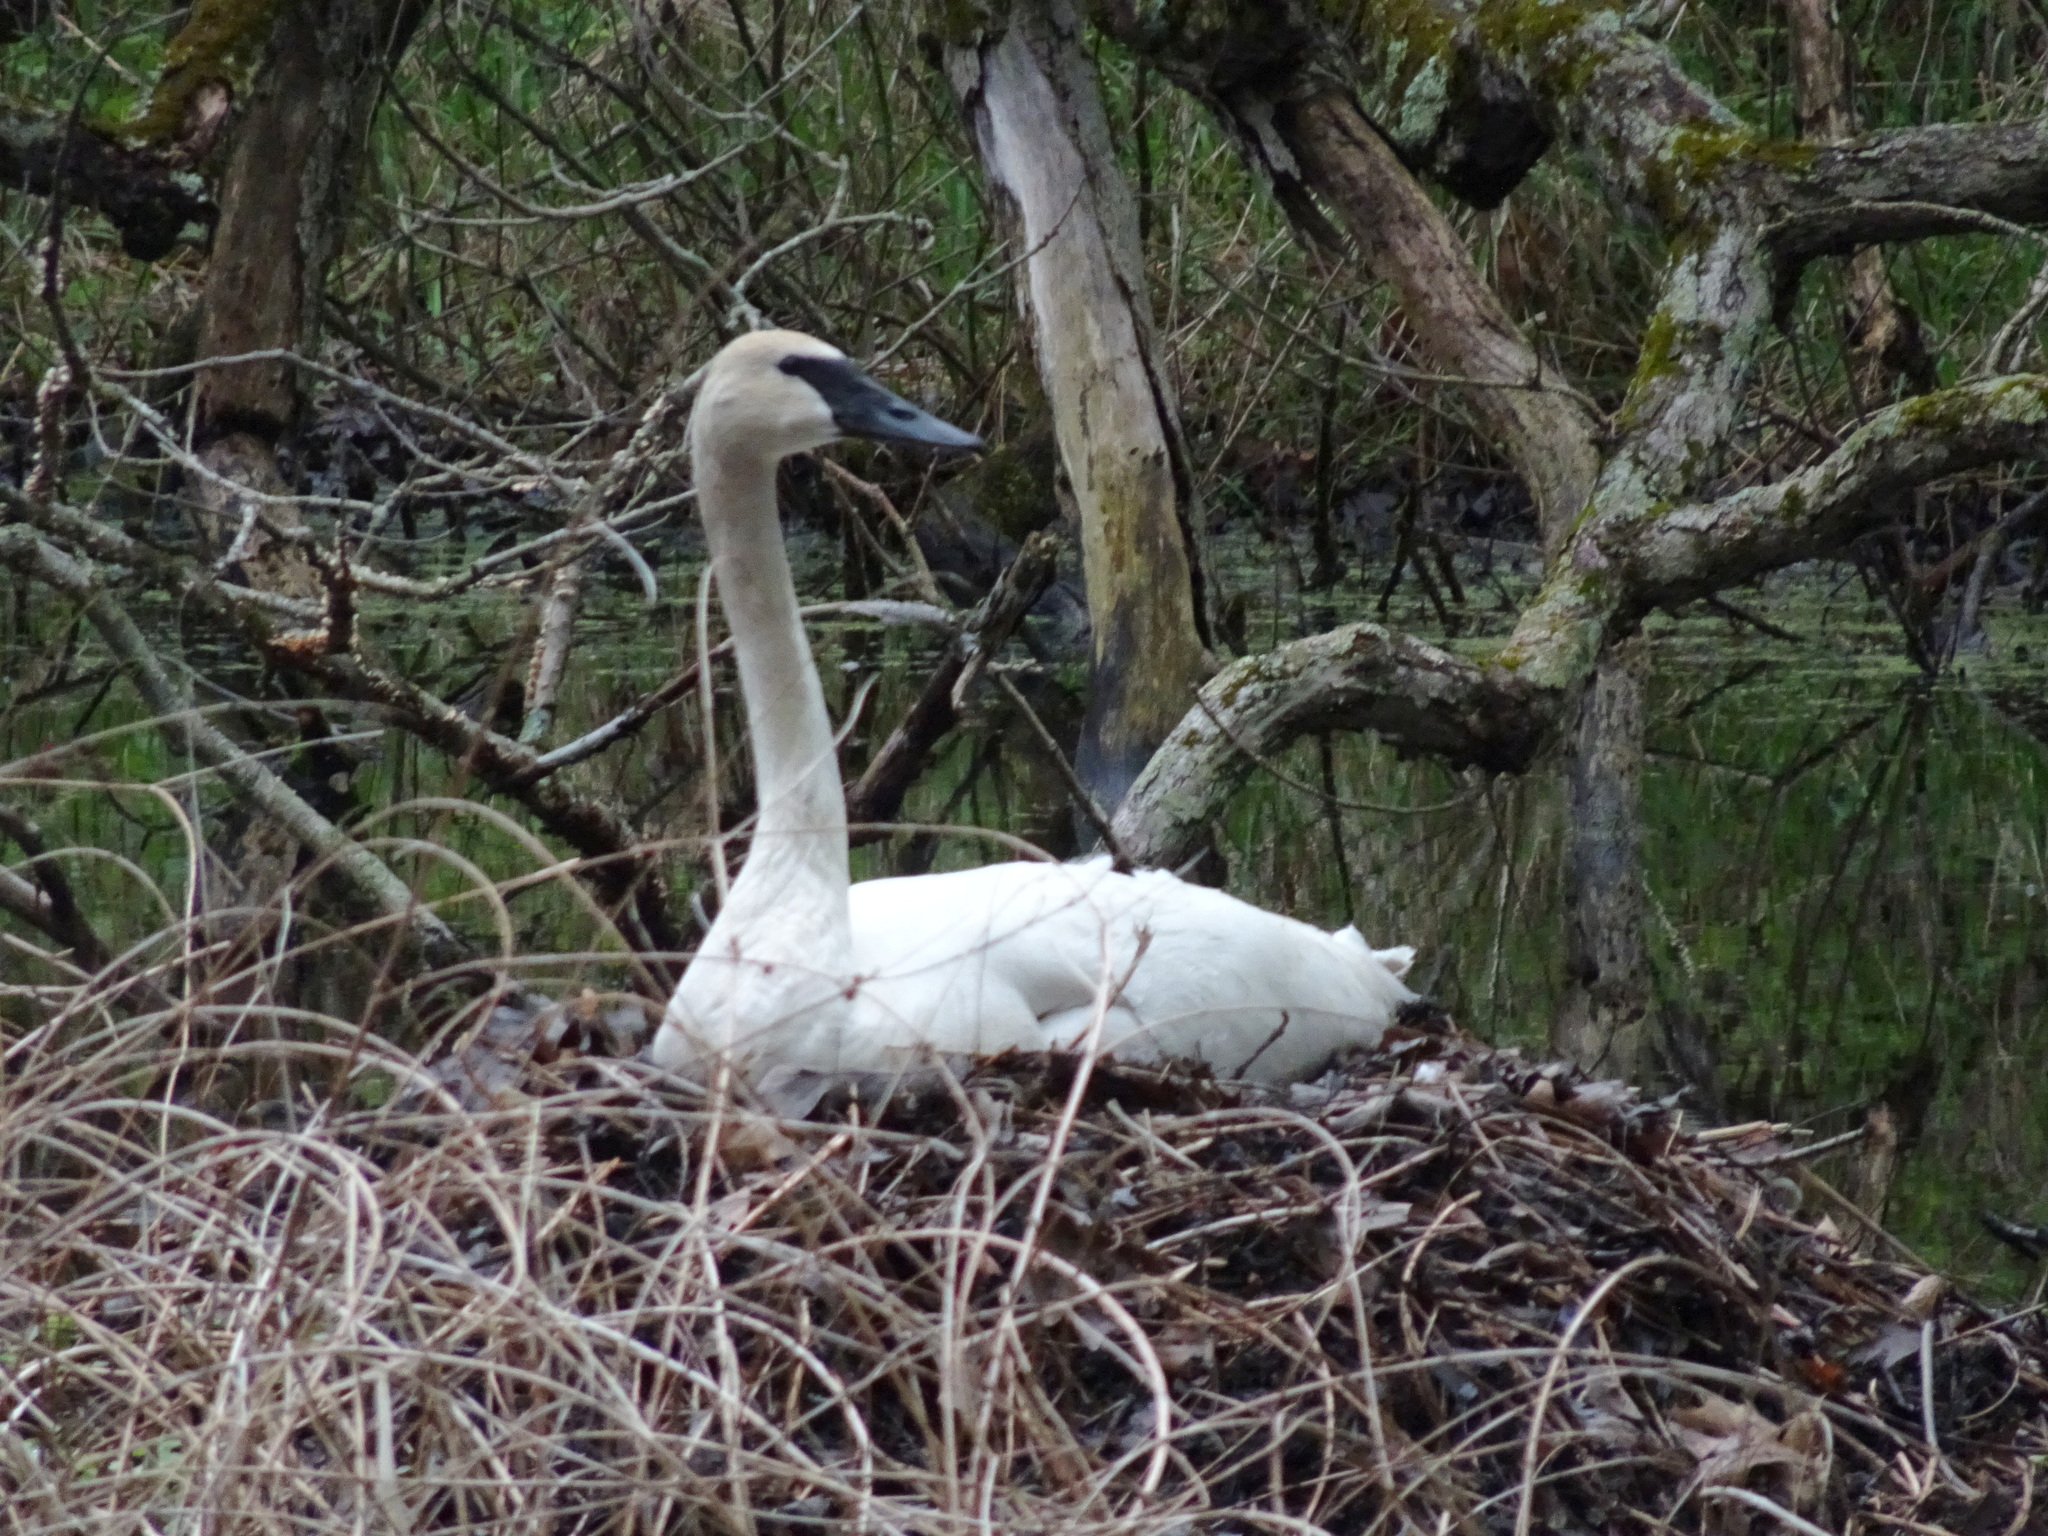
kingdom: Animalia
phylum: Chordata
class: Aves
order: Anseriformes
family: Anatidae
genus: Cygnus
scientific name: Cygnus buccinator
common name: Trumpeter swan
